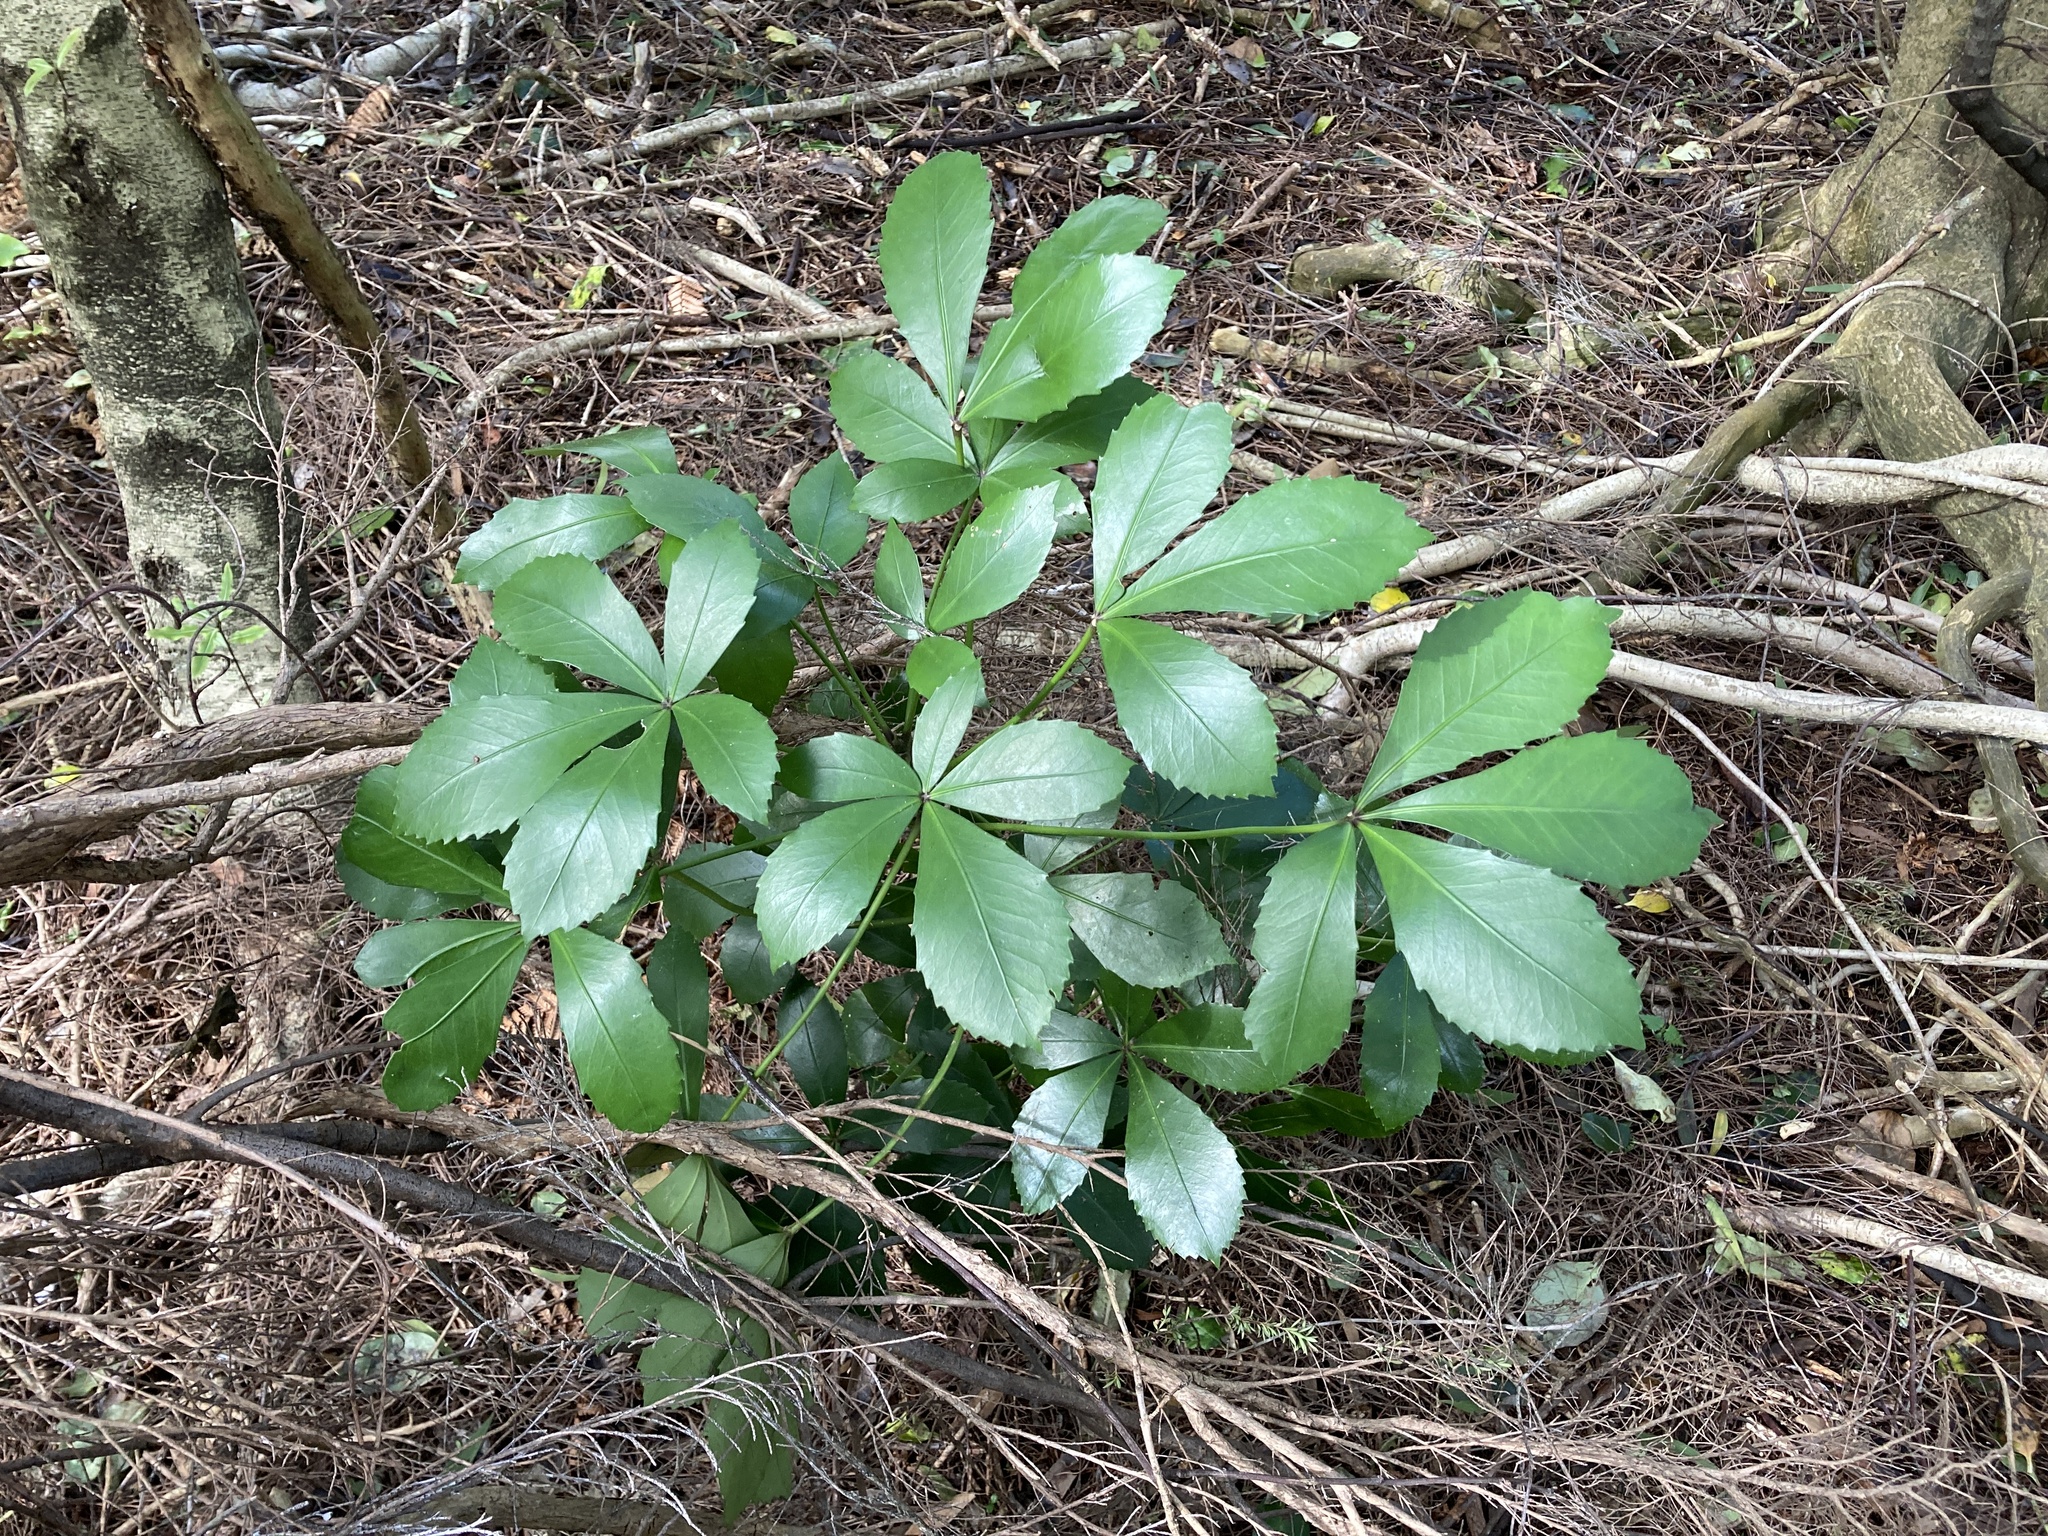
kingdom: Plantae
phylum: Tracheophyta
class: Magnoliopsida
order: Apiales
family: Araliaceae
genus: Pseudopanax
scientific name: Pseudopanax lessonii
